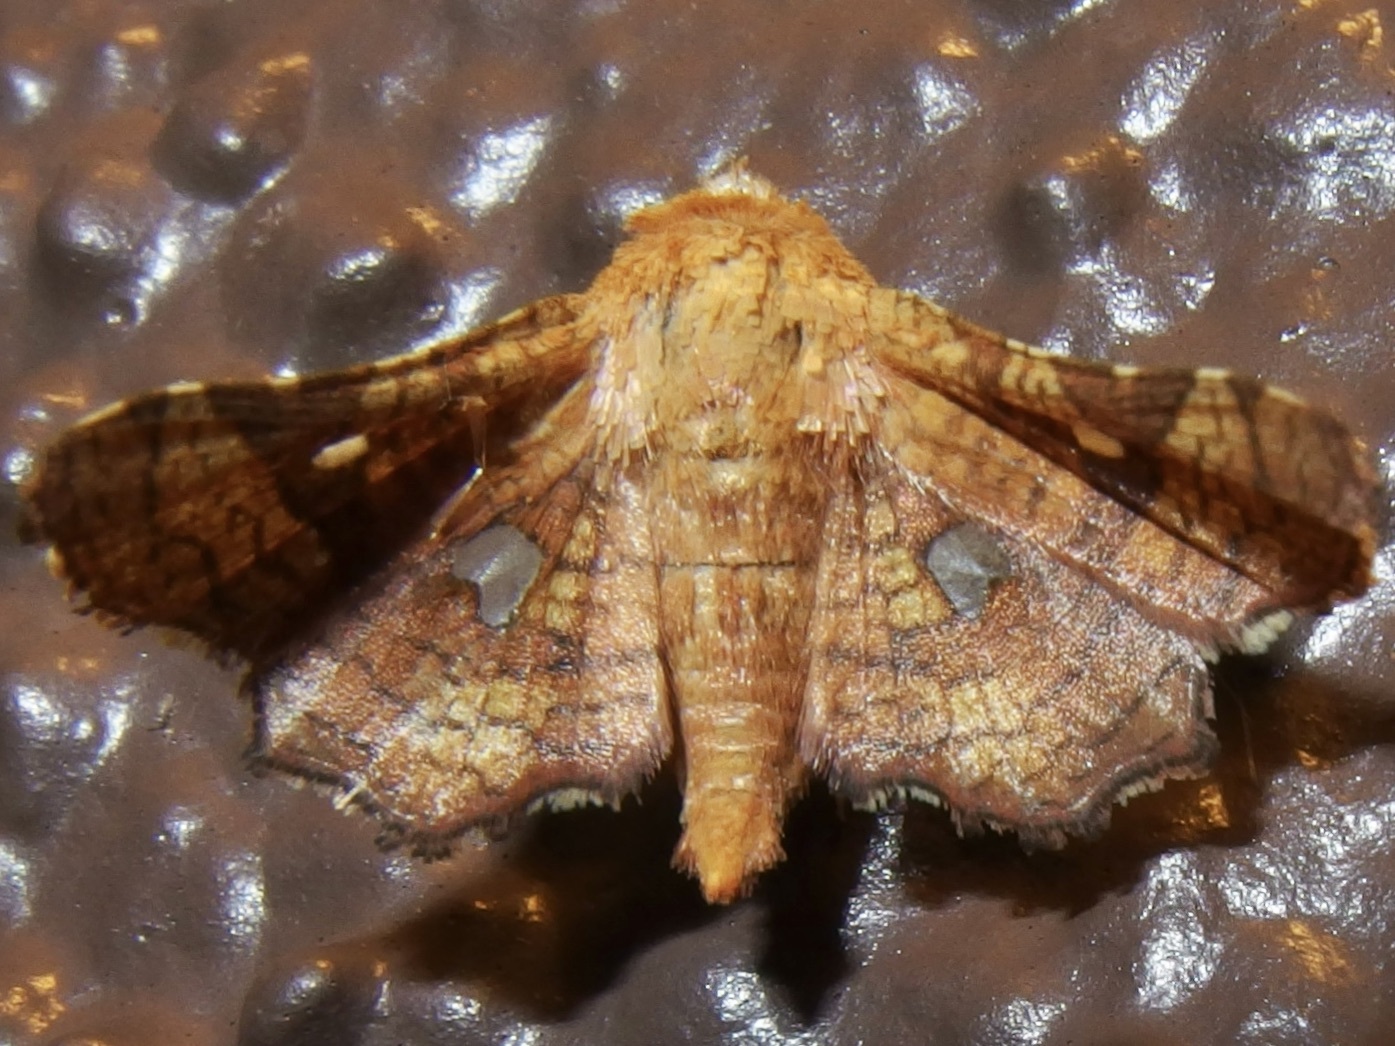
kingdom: Animalia
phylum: Arthropoda
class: Insecta
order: Lepidoptera
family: Thyrididae
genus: Dysodia
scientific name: Dysodia granulata
